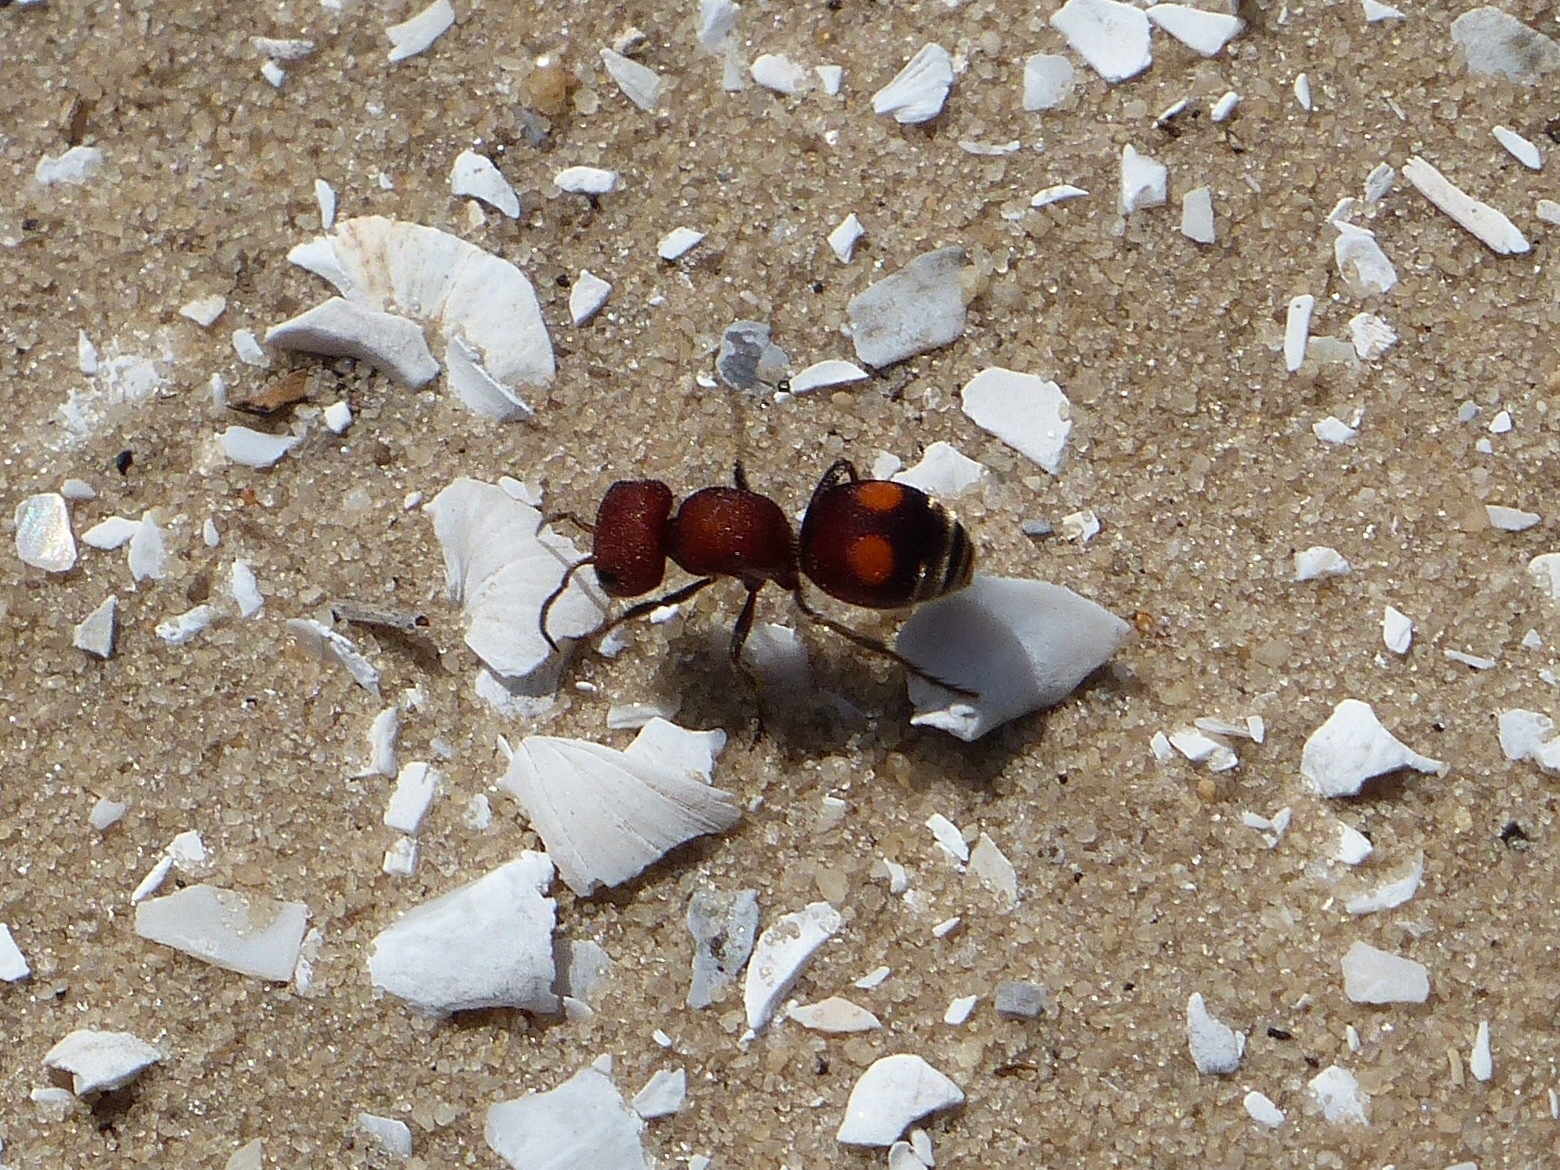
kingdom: Animalia
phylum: Arthropoda
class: Insecta
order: Hymenoptera
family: Mutillidae
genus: Pseudomethoca
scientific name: Pseudomethoca
